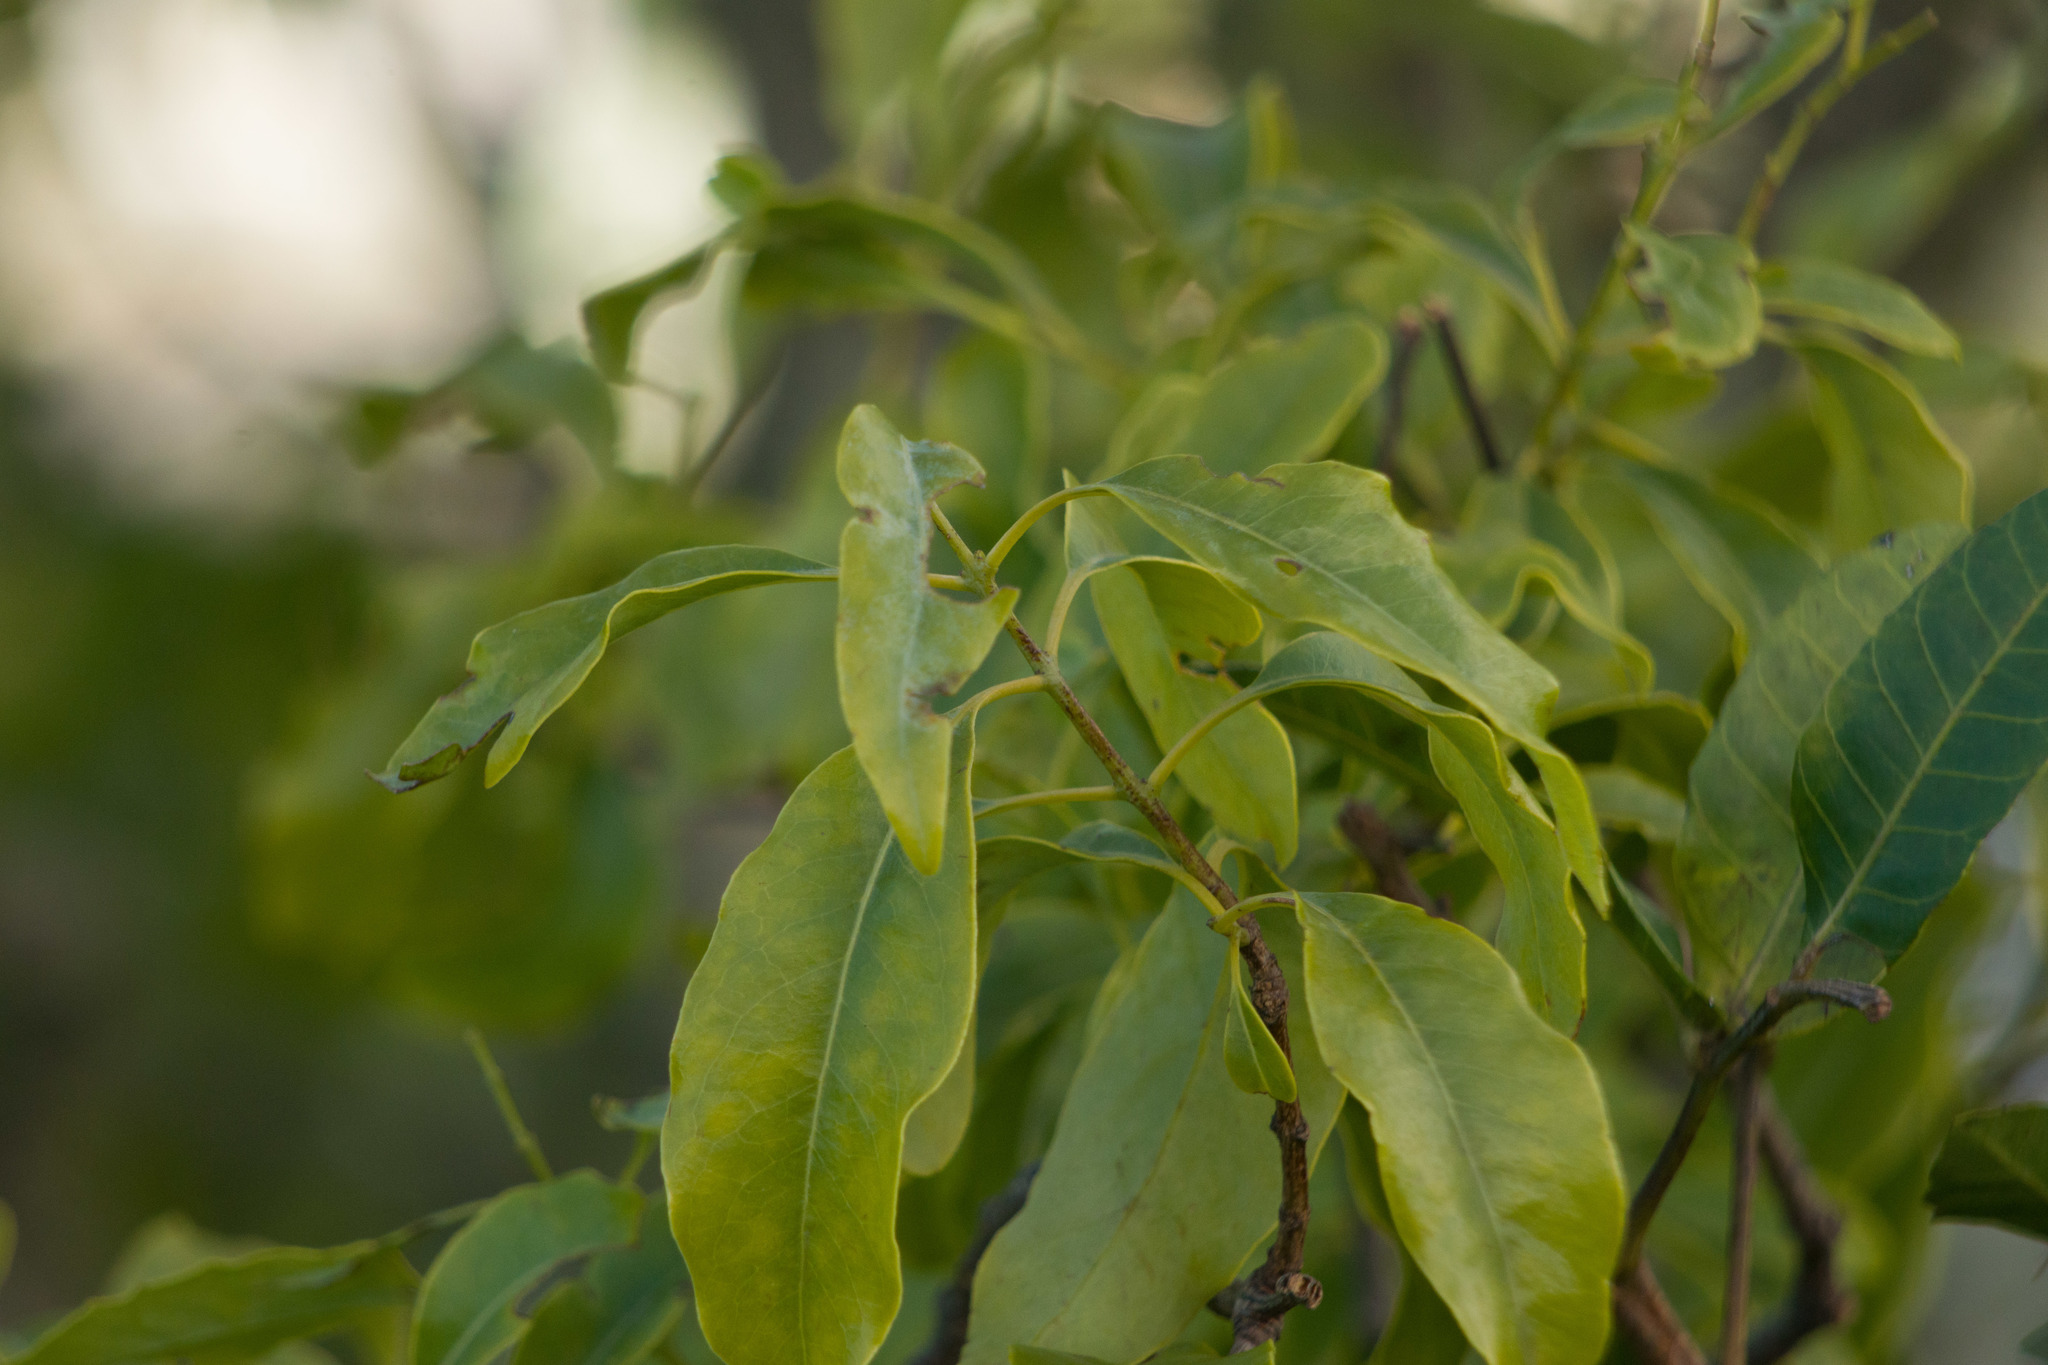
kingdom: Plantae
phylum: Tracheophyta
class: Magnoliopsida
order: Santalales
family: Santalaceae
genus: Santalum
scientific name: Santalum album
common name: Indian sandalwood
